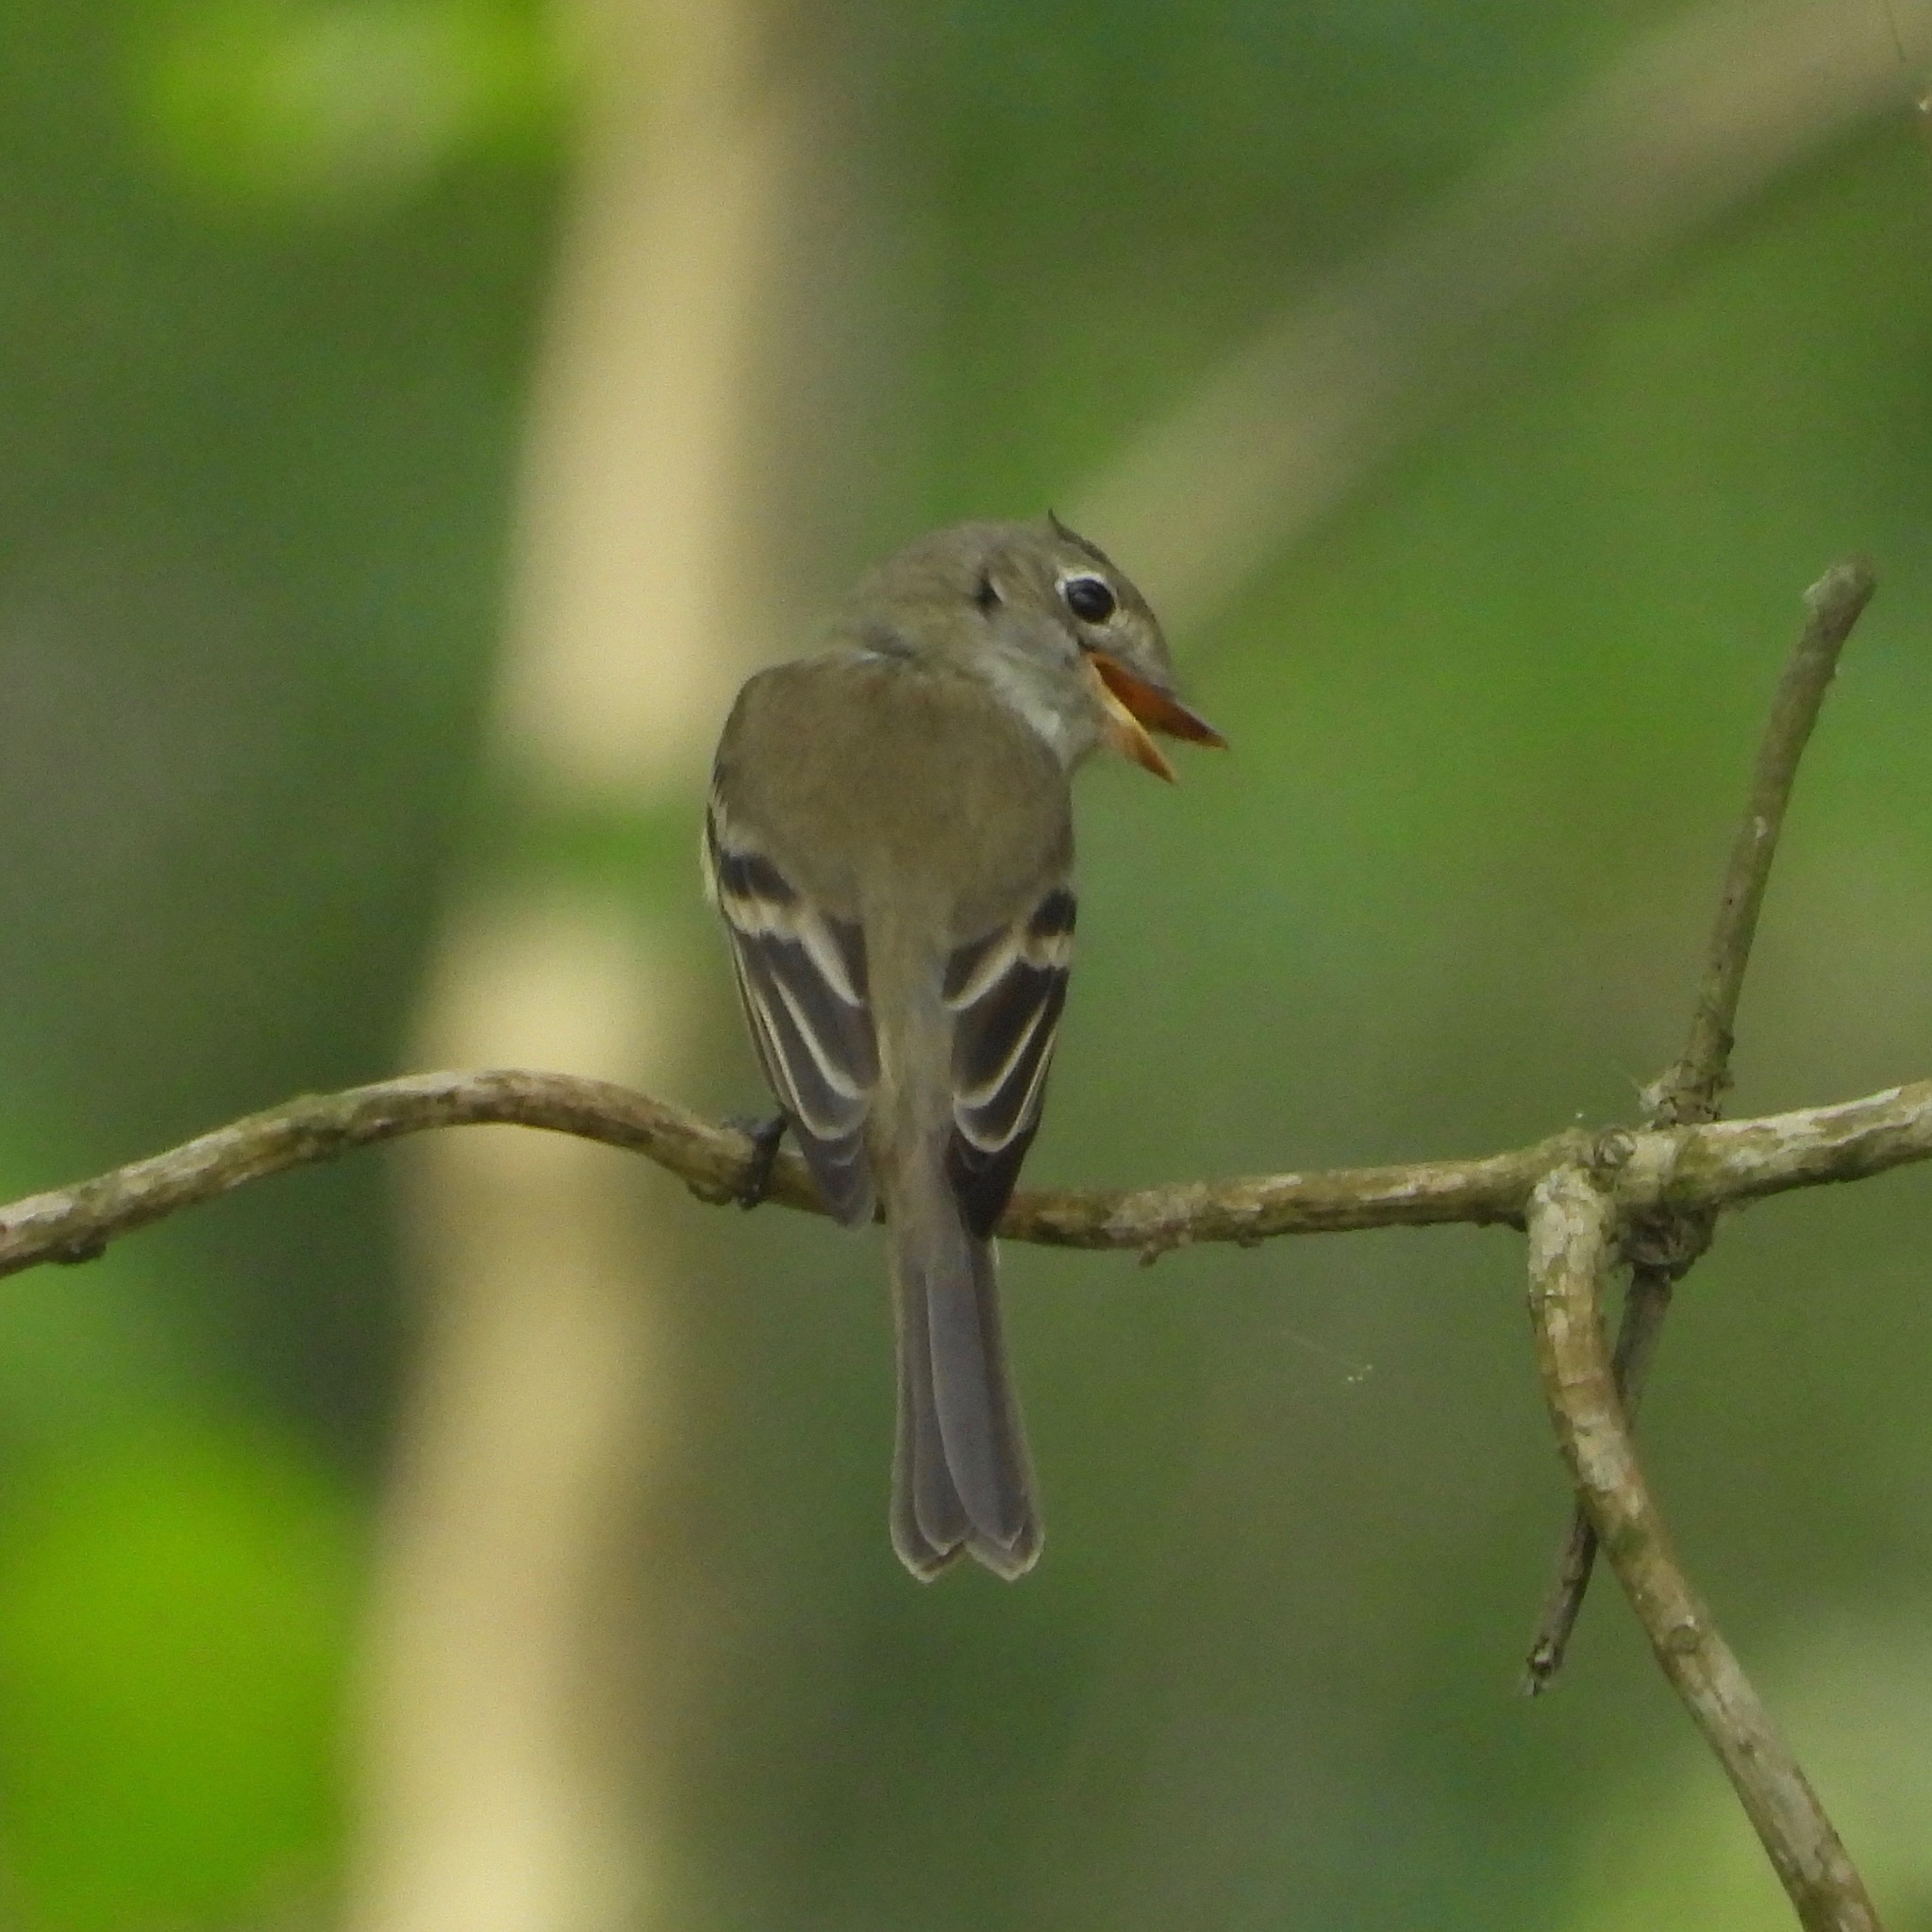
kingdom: Animalia
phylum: Chordata
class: Aves
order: Passeriformes
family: Tyrannidae
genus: Empidonax
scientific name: Empidonax minimus
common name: Least flycatcher
